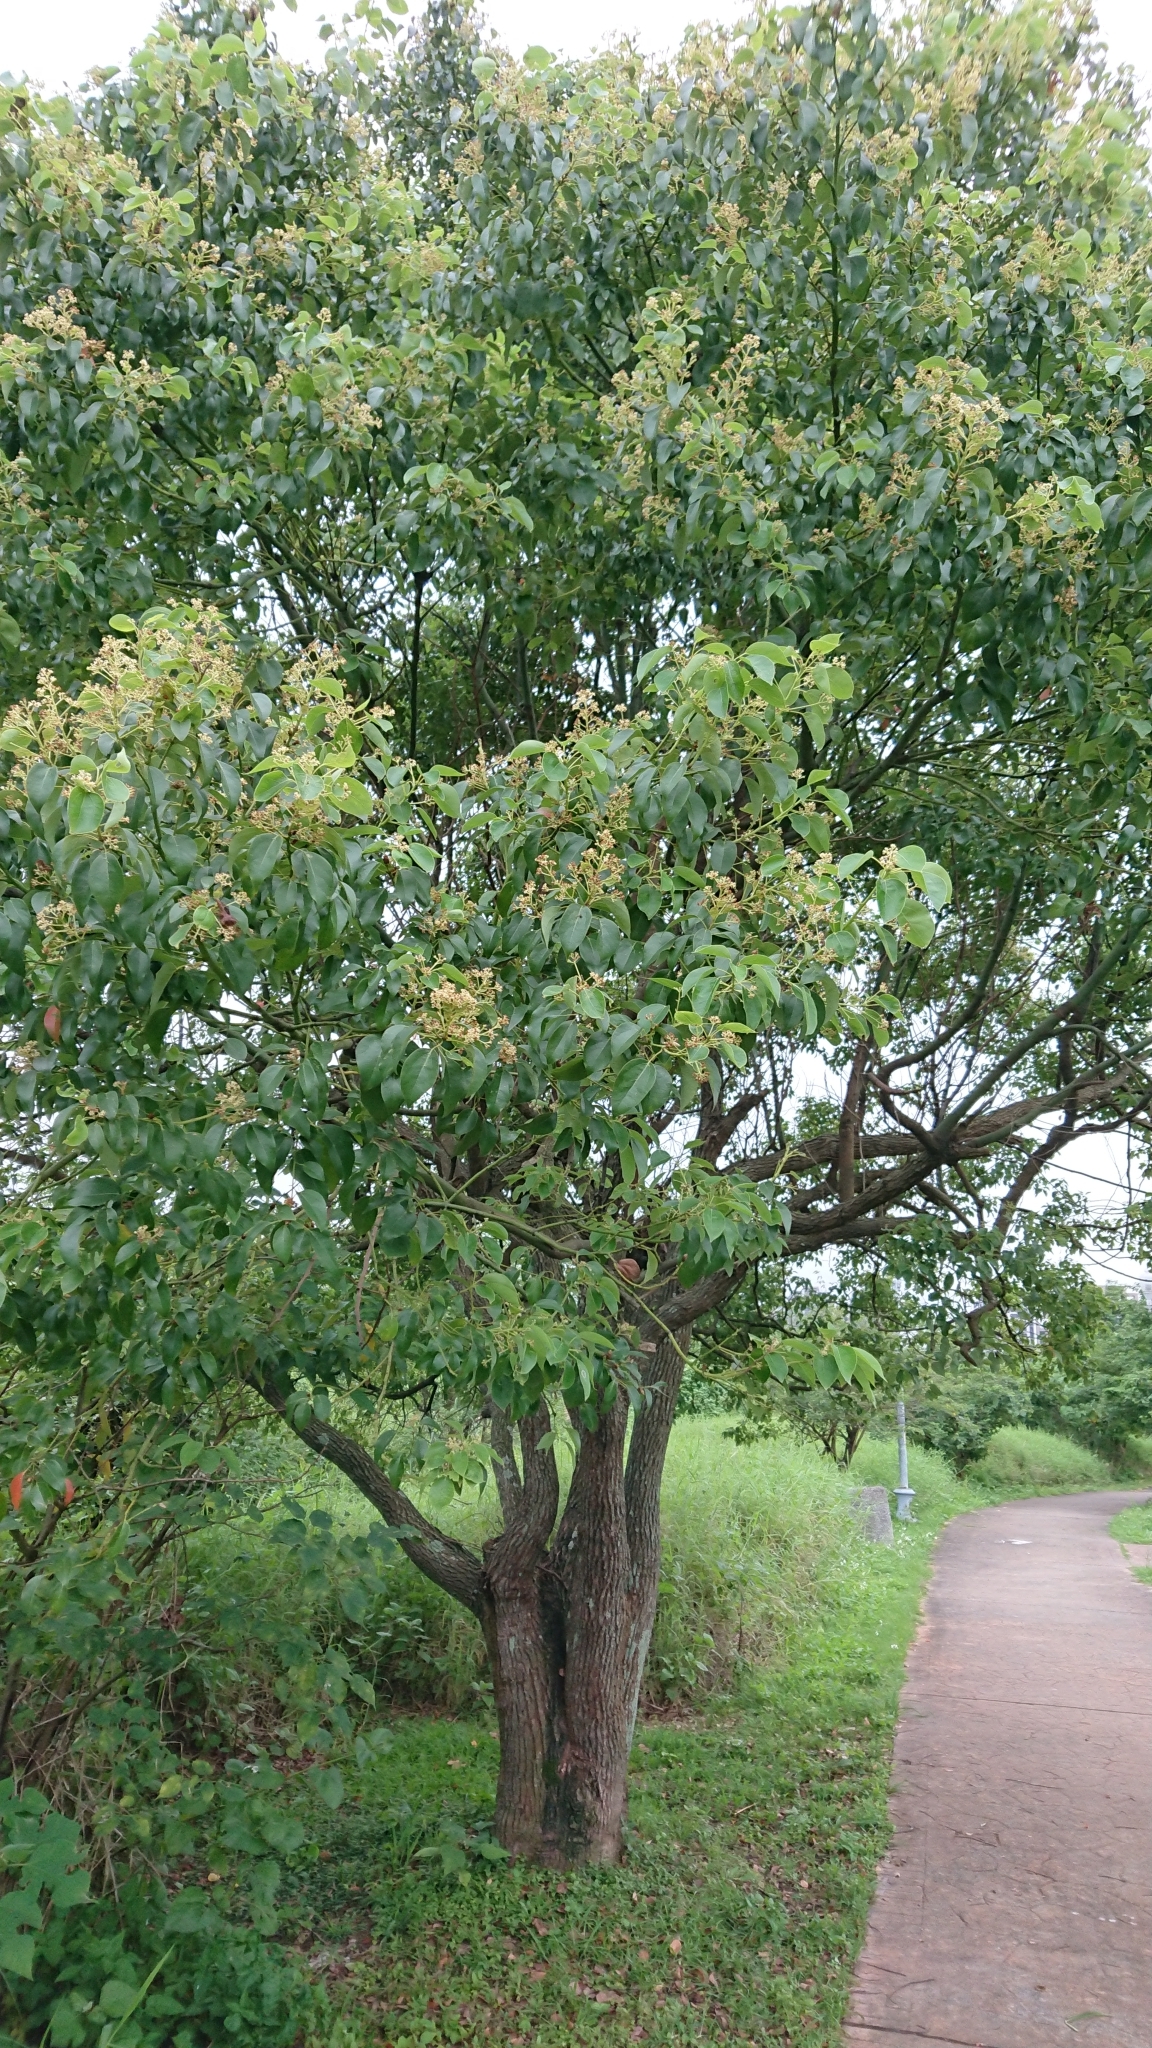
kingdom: Plantae
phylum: Tracheophyta
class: Magnoliopsida
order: Laurales
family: Lauraceae
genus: Cinnamomum
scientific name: Cinnamomum camphora
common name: Camphortree
